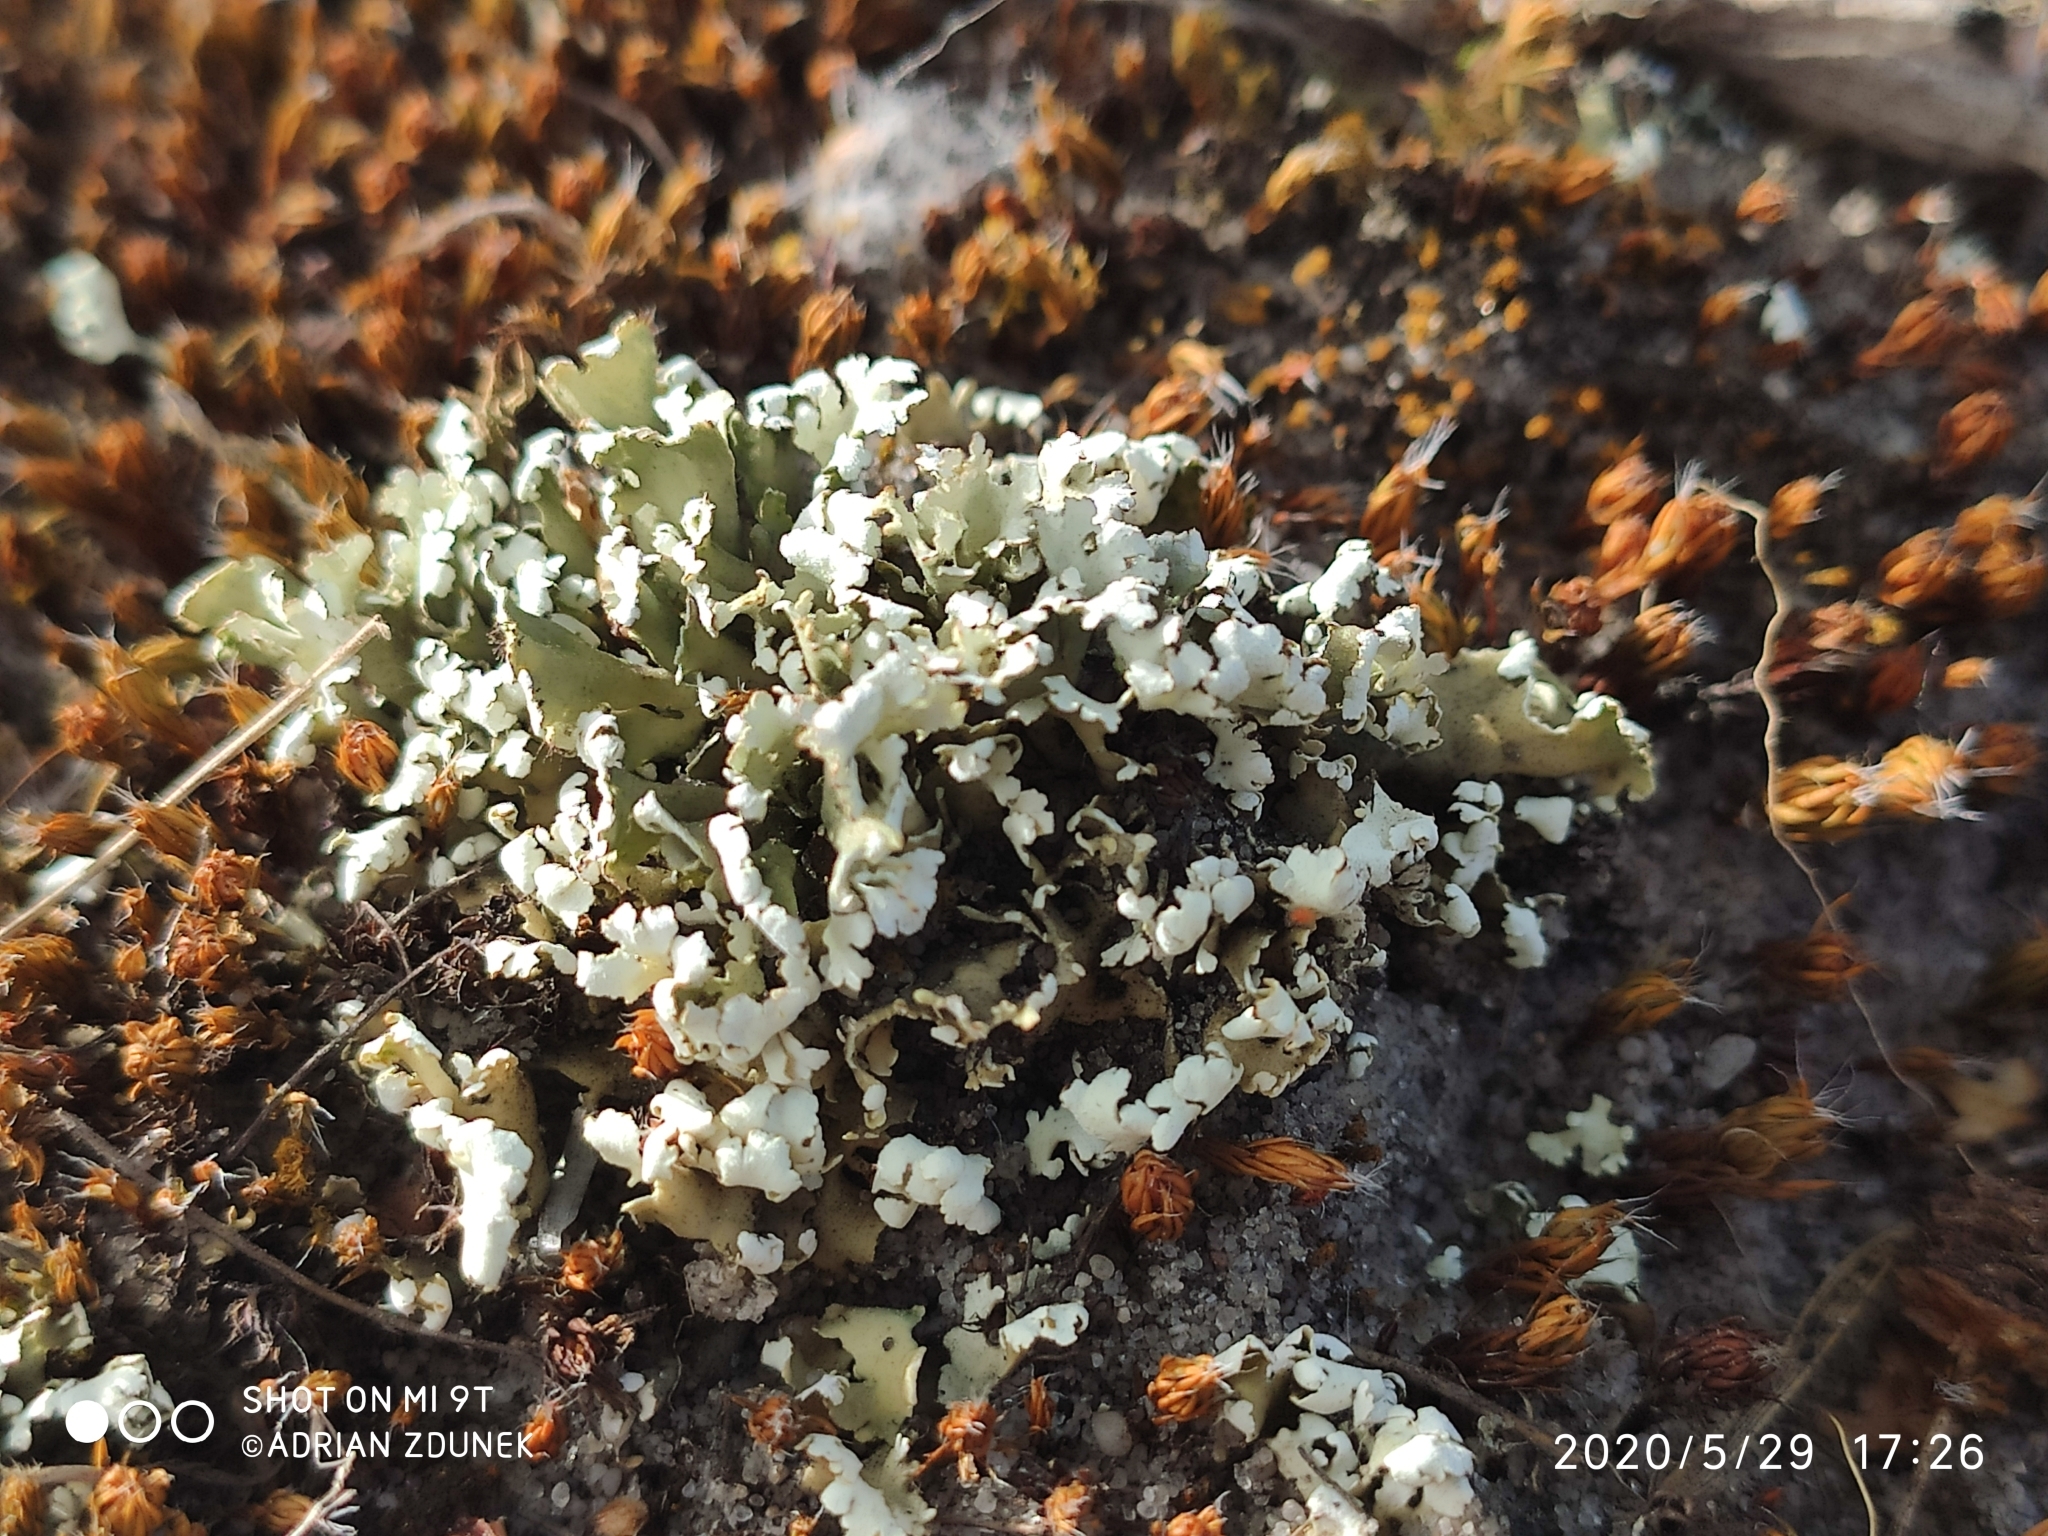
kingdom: Fungi
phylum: Ascomycota
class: Lecanoromycetes
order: Lecanorales
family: Cladoniaceae
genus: Cladonia
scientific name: Cladonia foliacea
